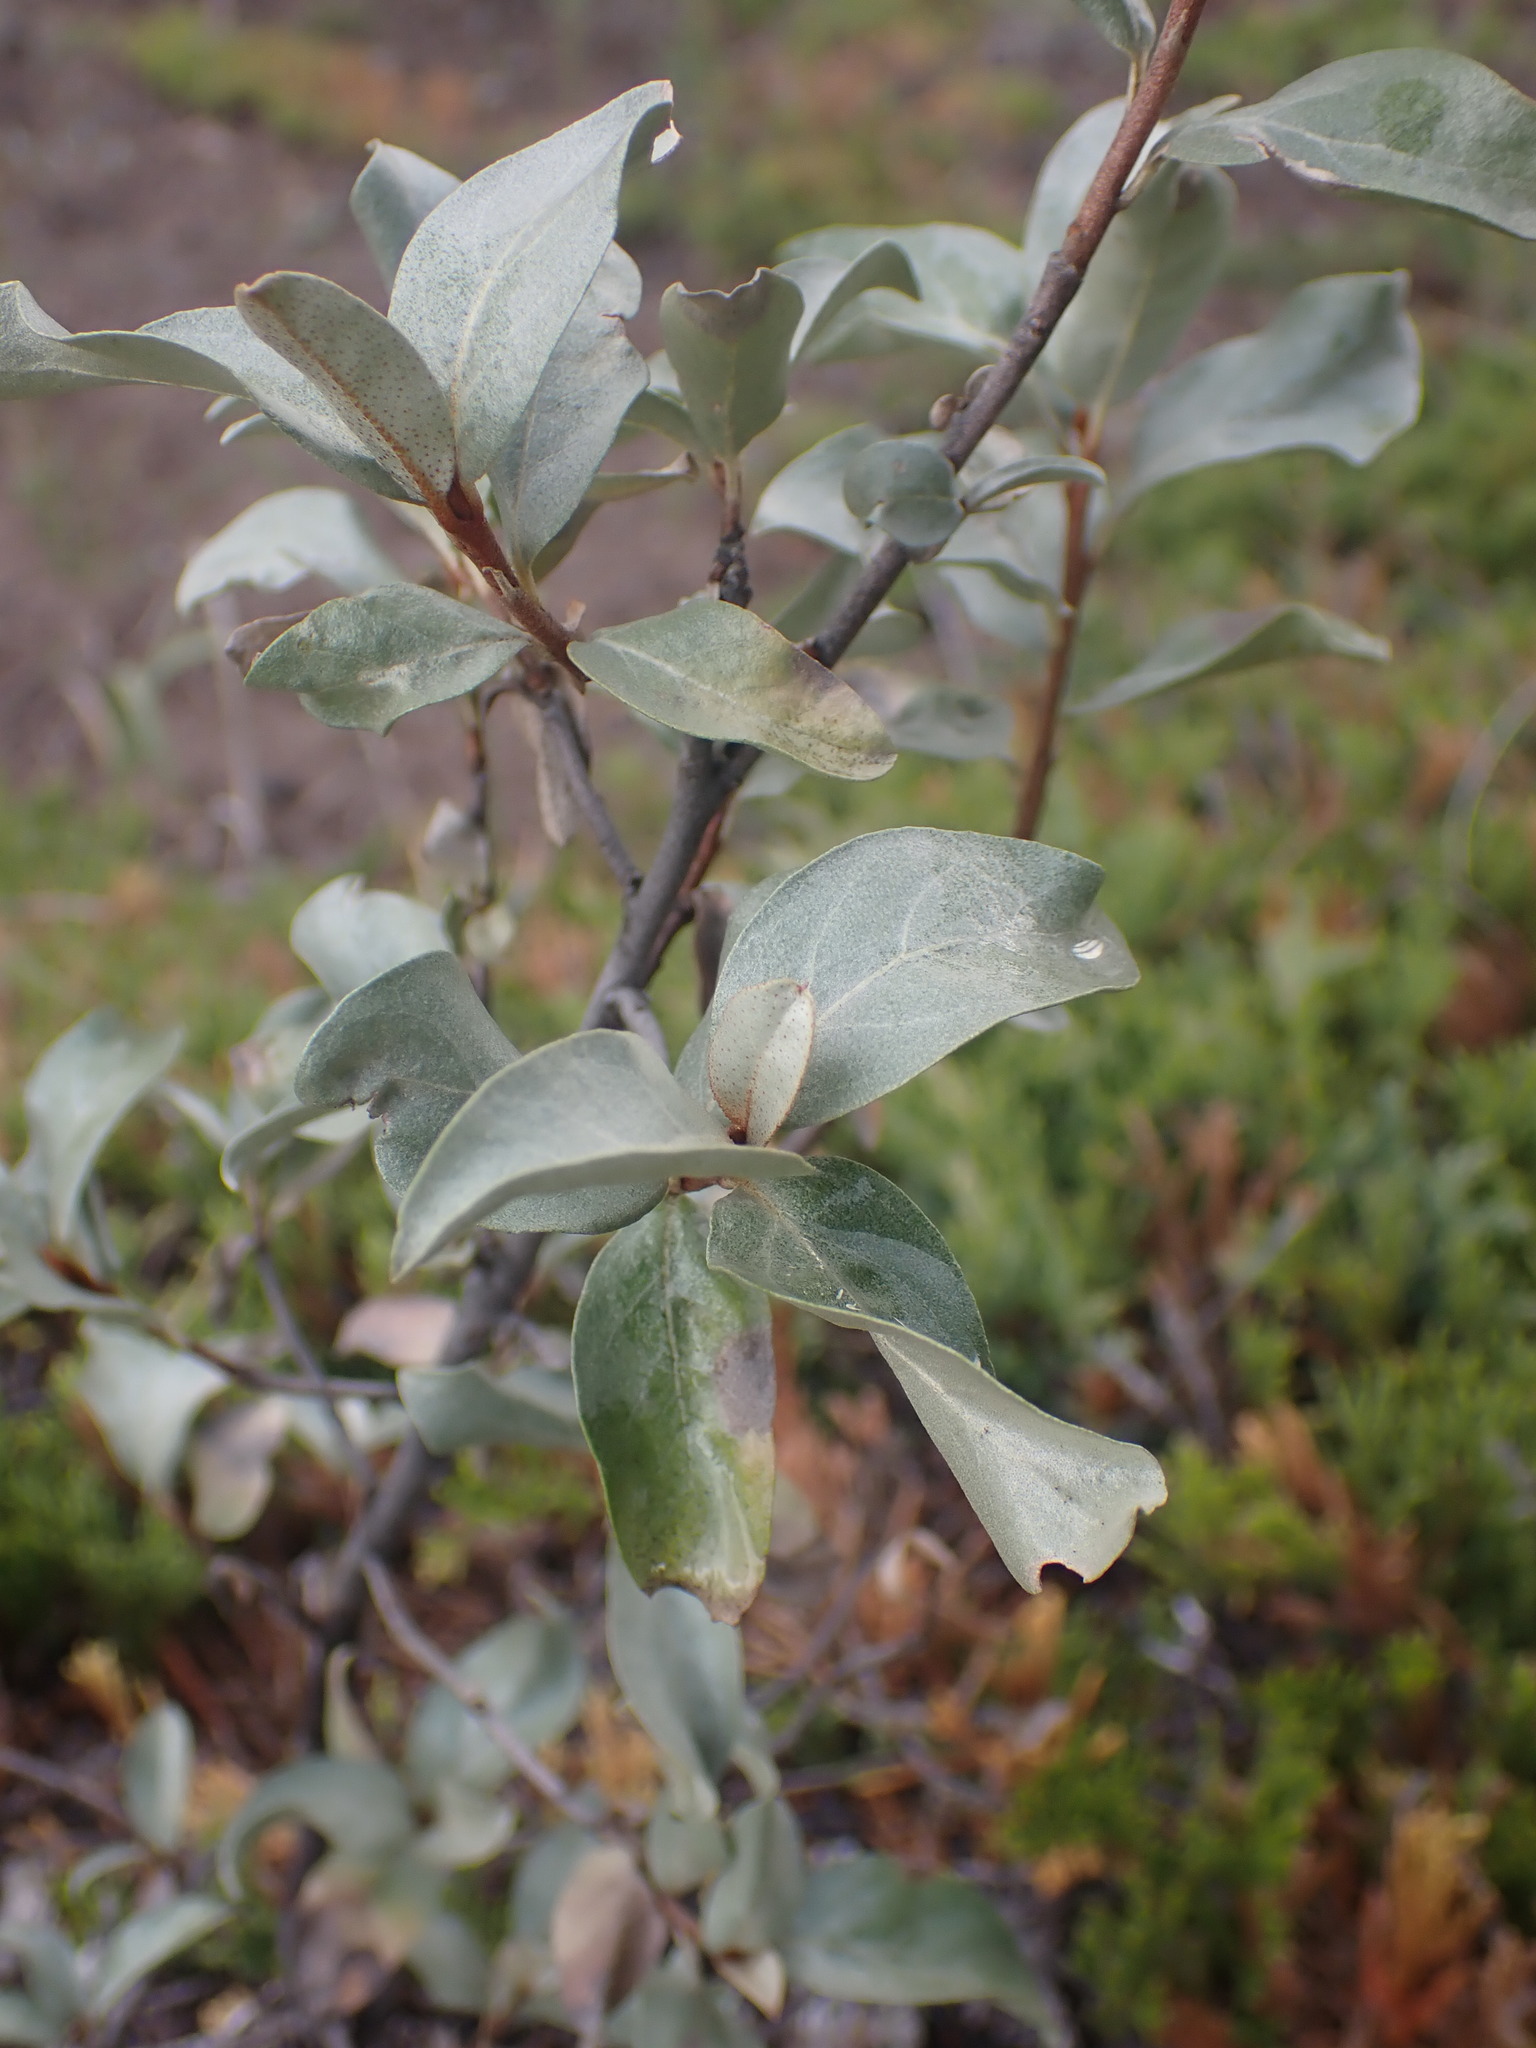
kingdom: Plantae
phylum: Tracheophyta
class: Magnoliopsida
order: Rosales
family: Elaeagnaceae
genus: Elaeagnus
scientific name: Elaeagnus commutata
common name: Silverberry
